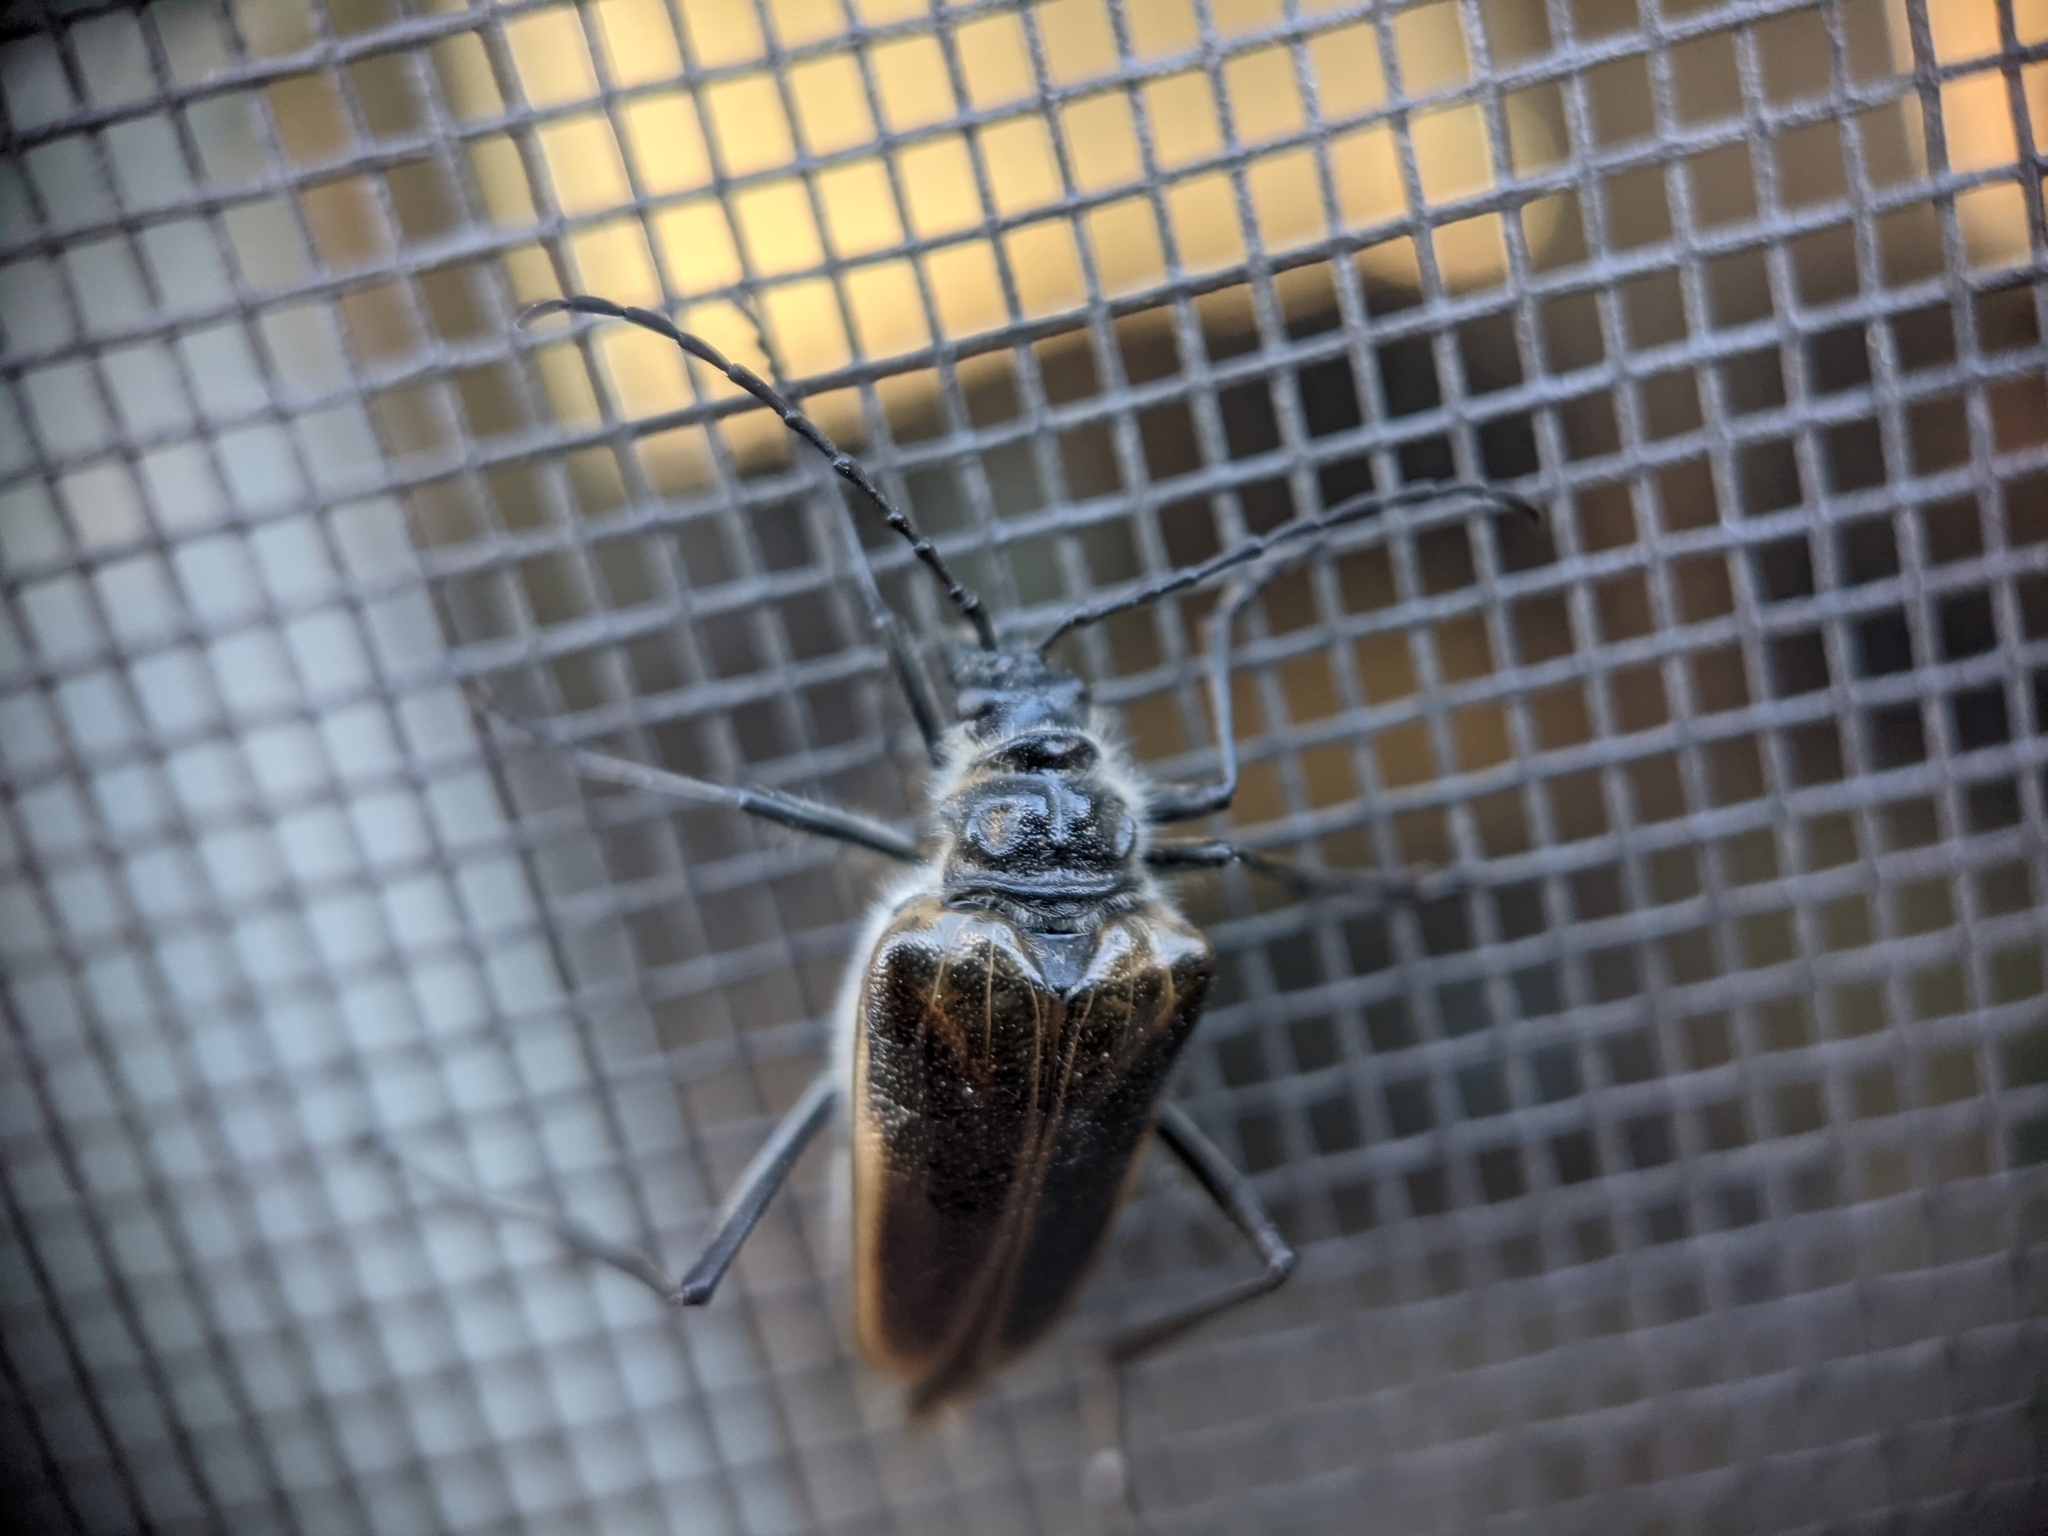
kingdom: Animalia
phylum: Arthropoda
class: Insecta
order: Coleoptera
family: Cerambycidae
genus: Pachyta
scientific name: Pachyta lamed
